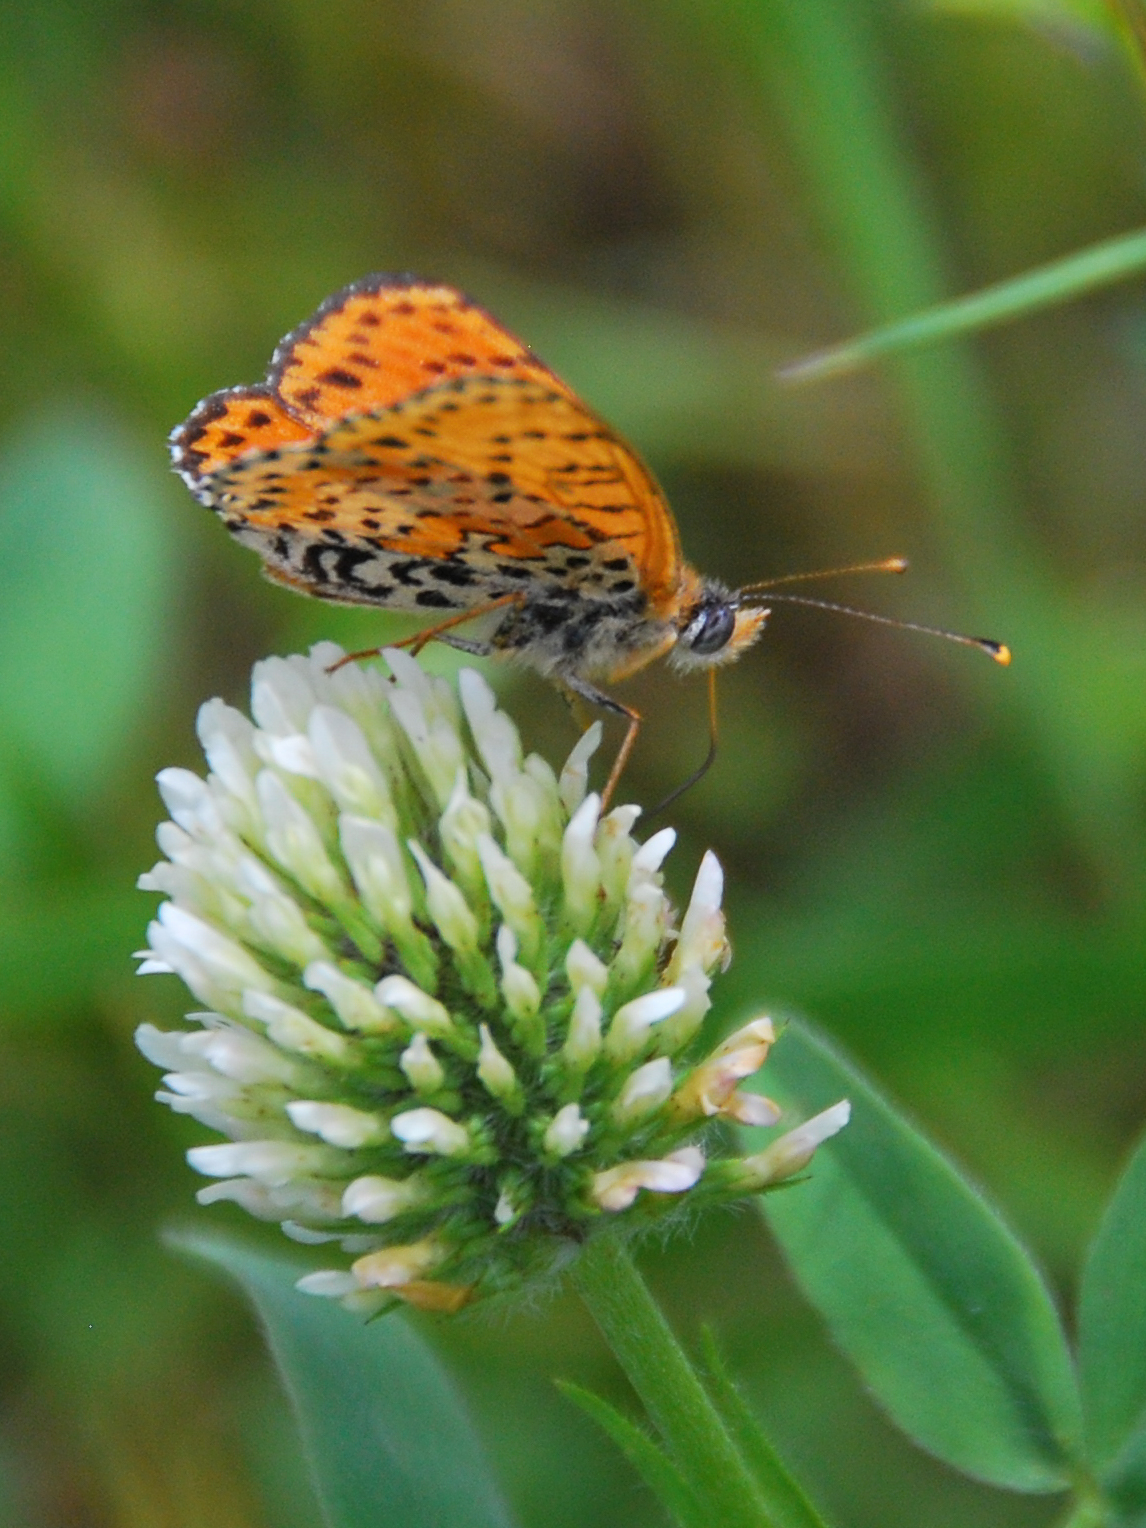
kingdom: Animalia
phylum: Arthropoda
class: Insecta
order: Lepidoptera
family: Nymphalidae
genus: Melitaea
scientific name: Melitaea didyma
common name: Spotted fritillary
